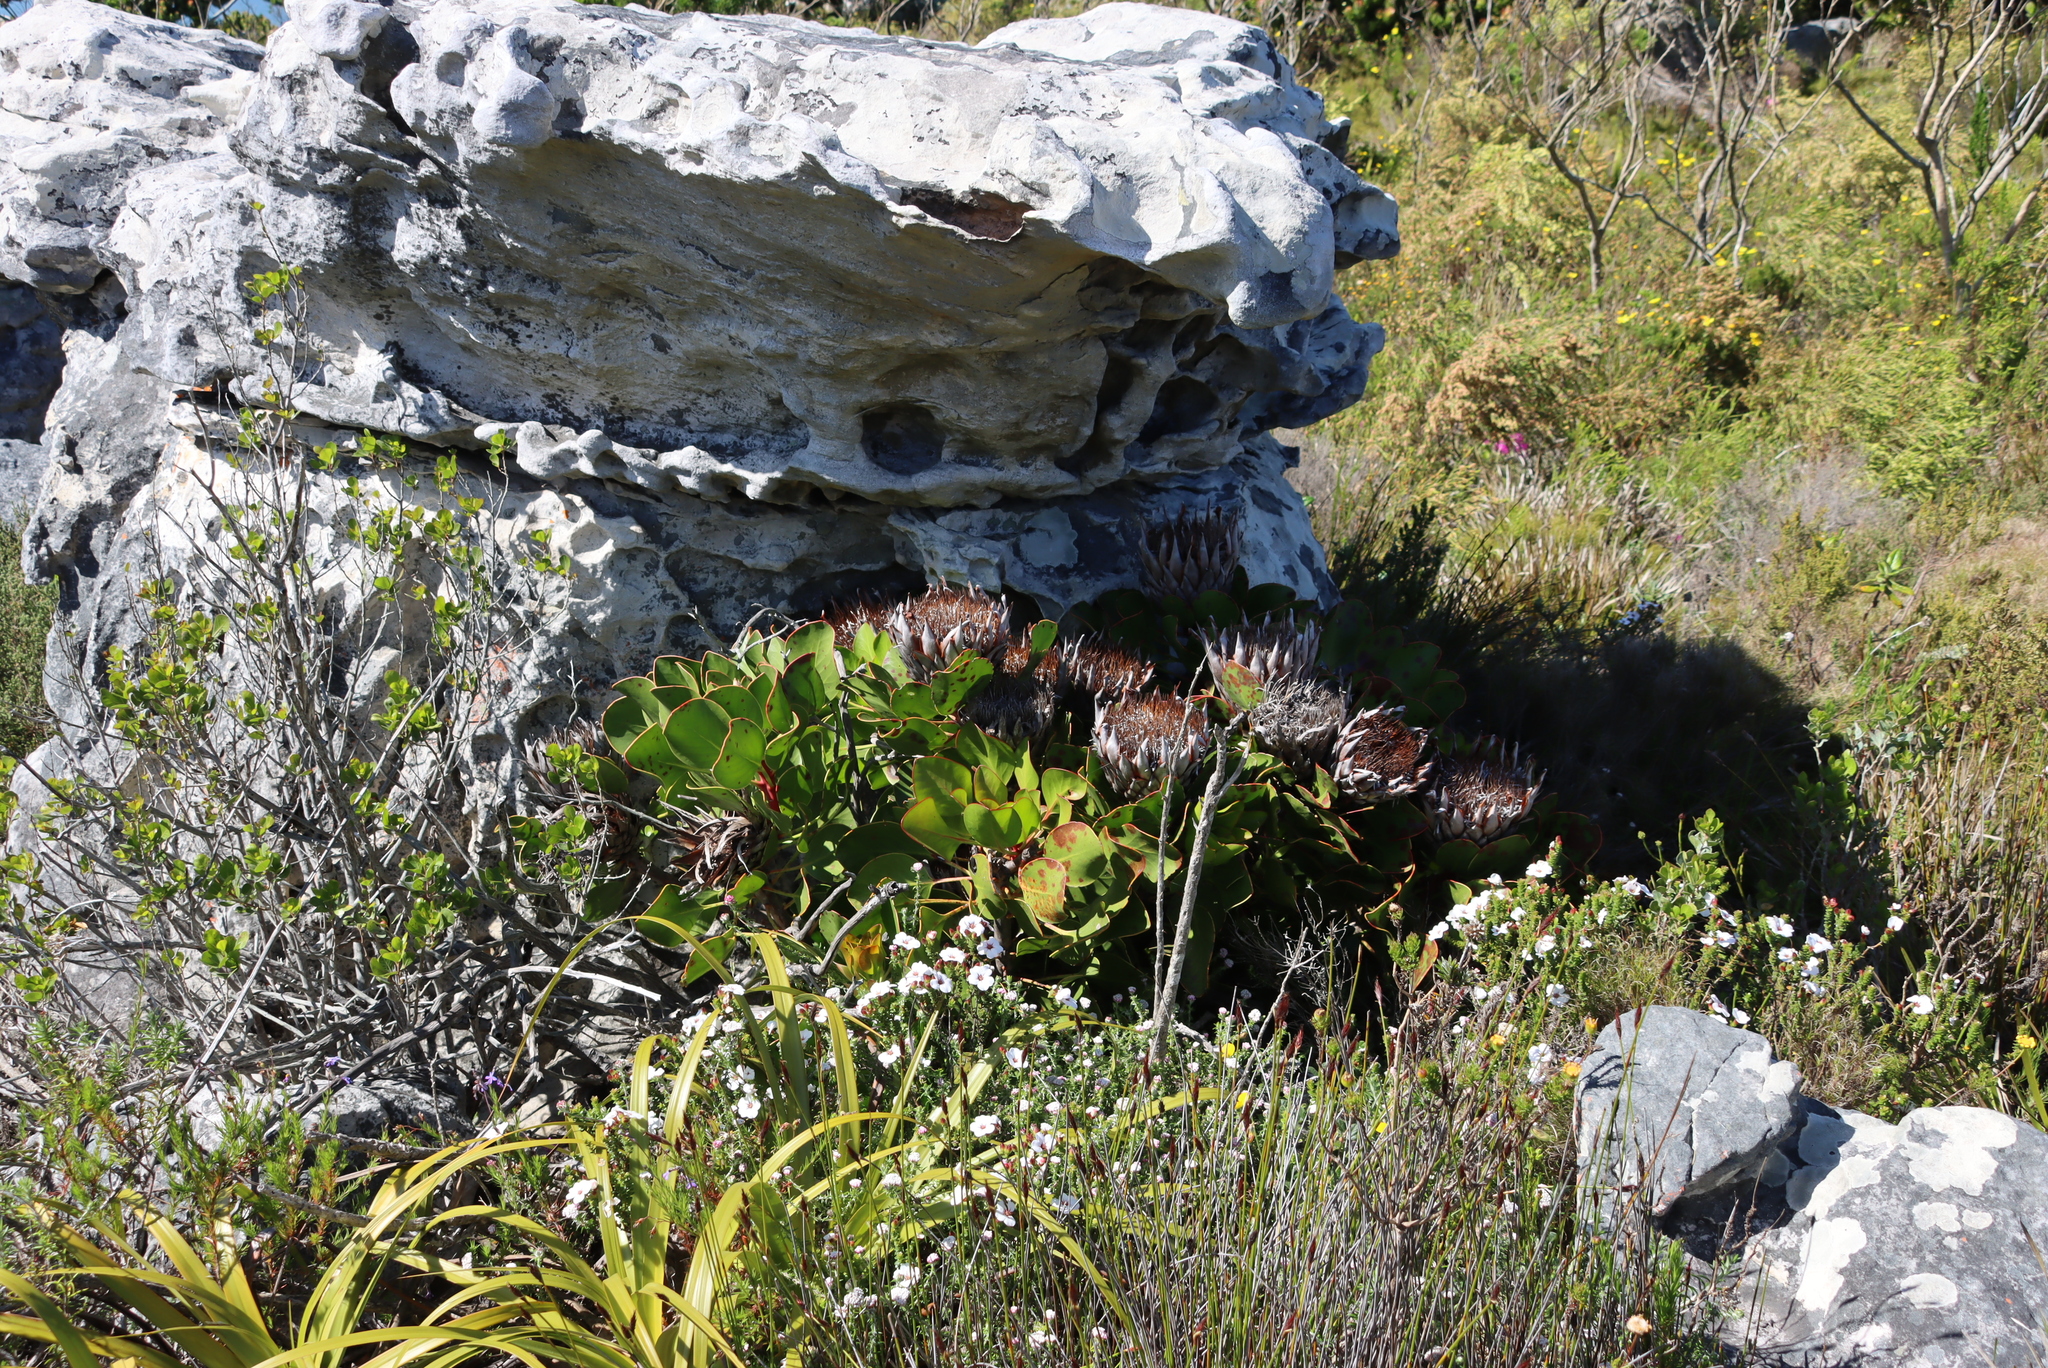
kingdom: Plantae
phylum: Tracheophyta
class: Magnoliopsida
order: Proteales
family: Proteaceae
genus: Protea
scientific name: Protea cynaroides
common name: King protea
